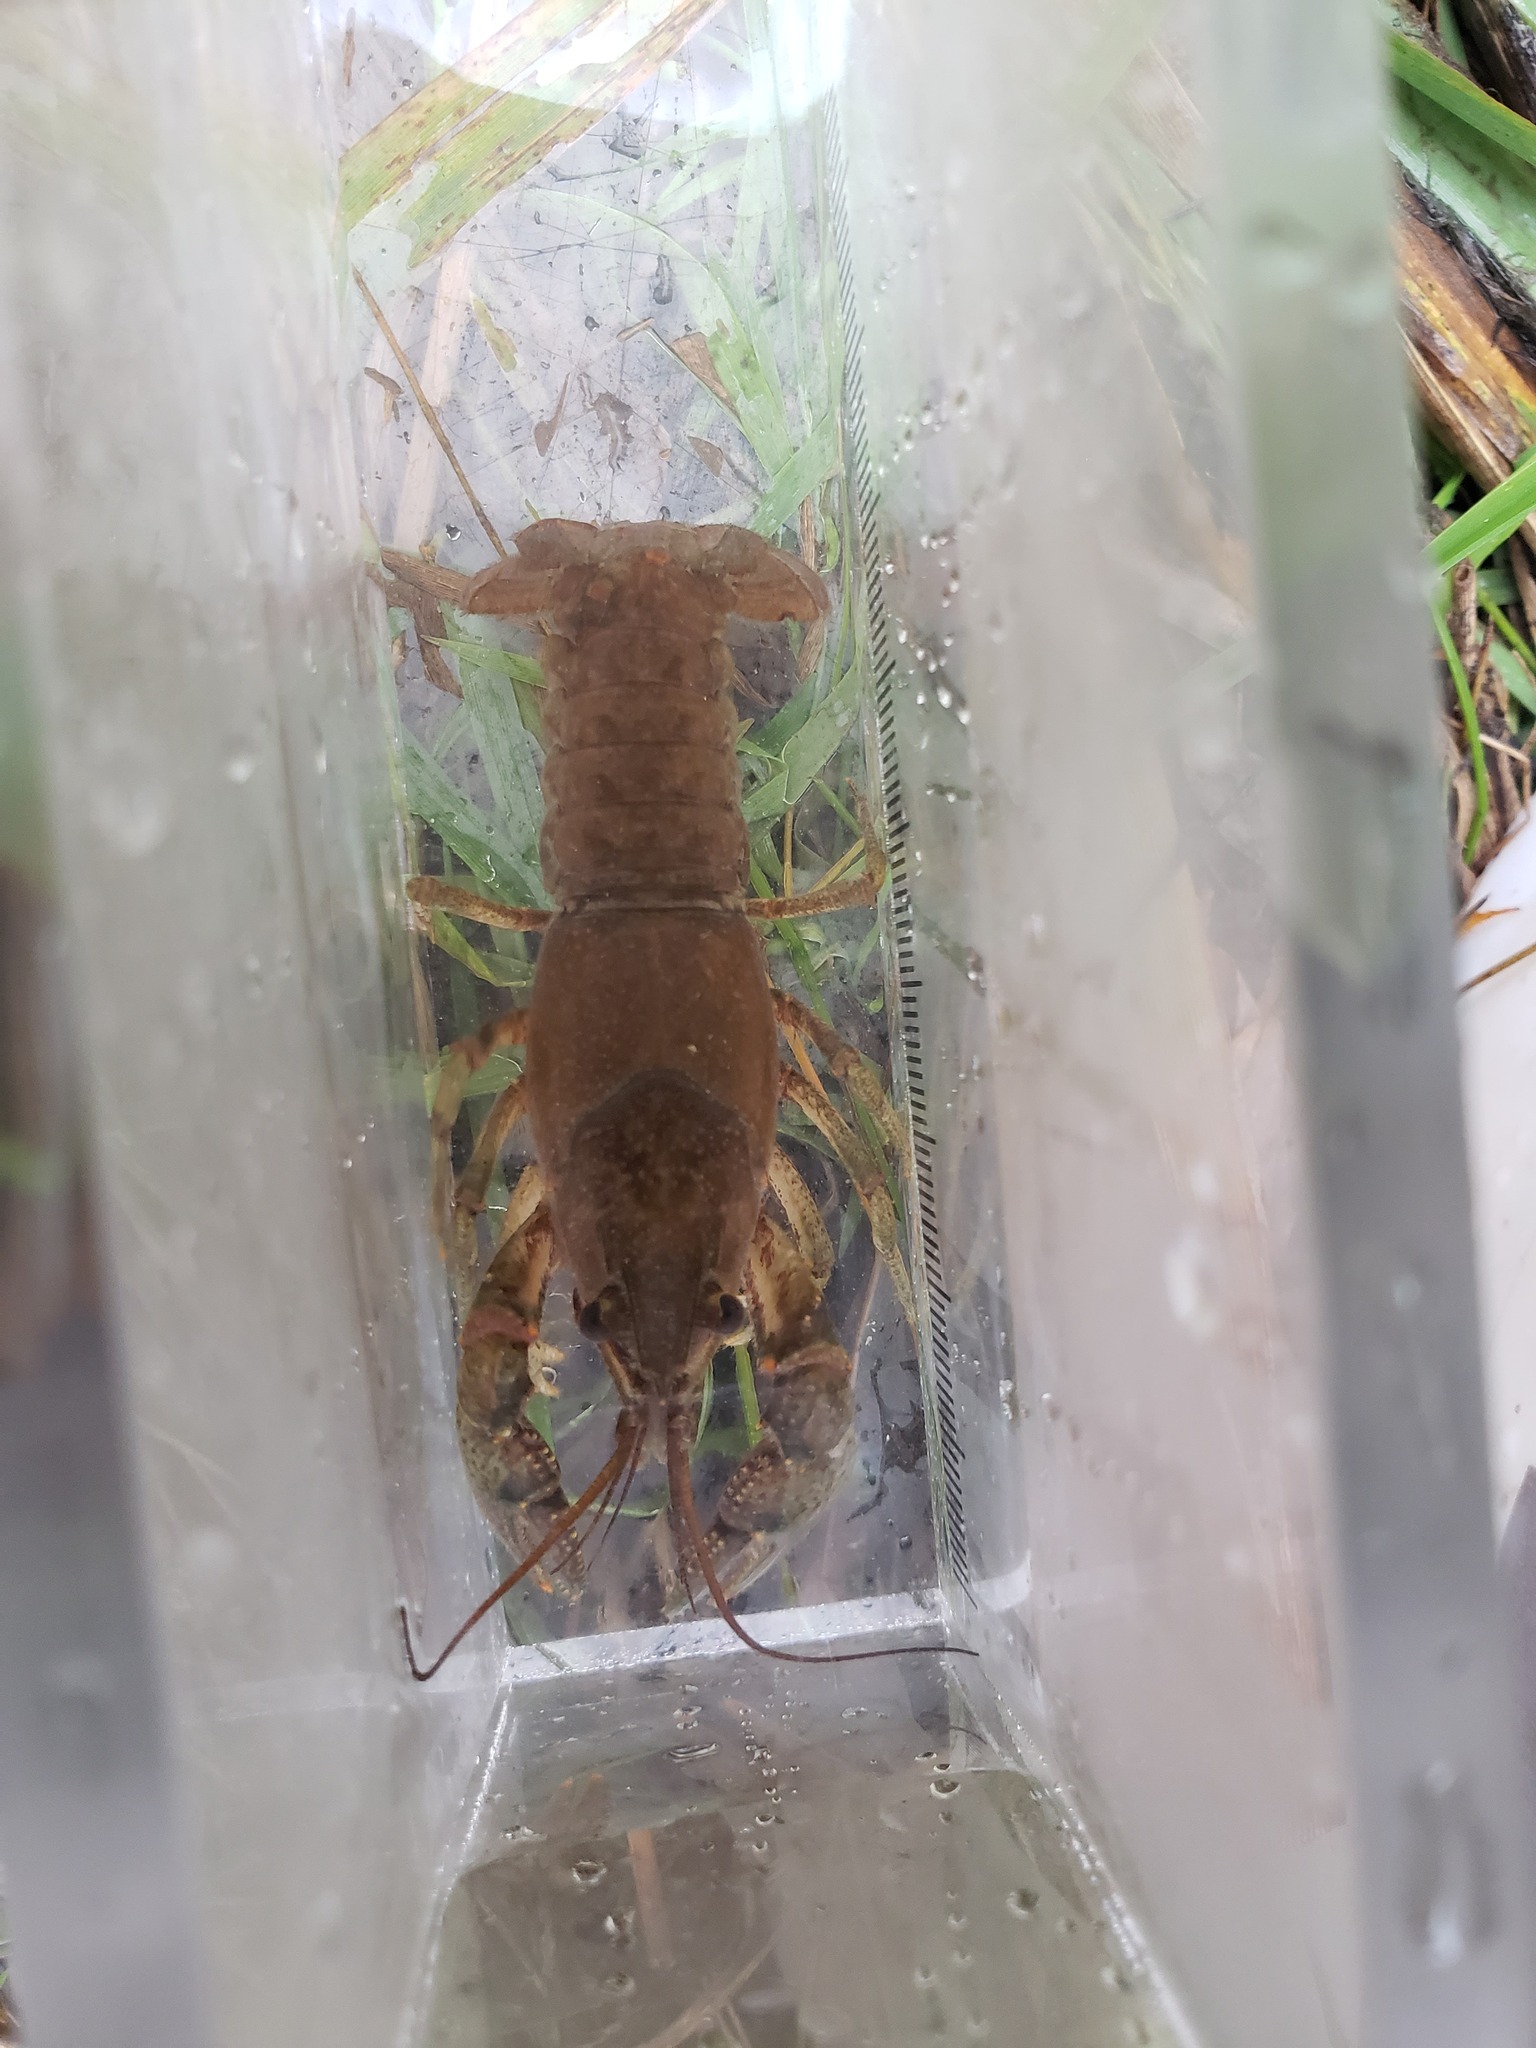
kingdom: Animalia
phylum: Arthropoda
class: Malacostraca
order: Decapoda
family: Cambaridae
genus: Faxonius
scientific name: Faxonius virilis
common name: Virile crayfish
